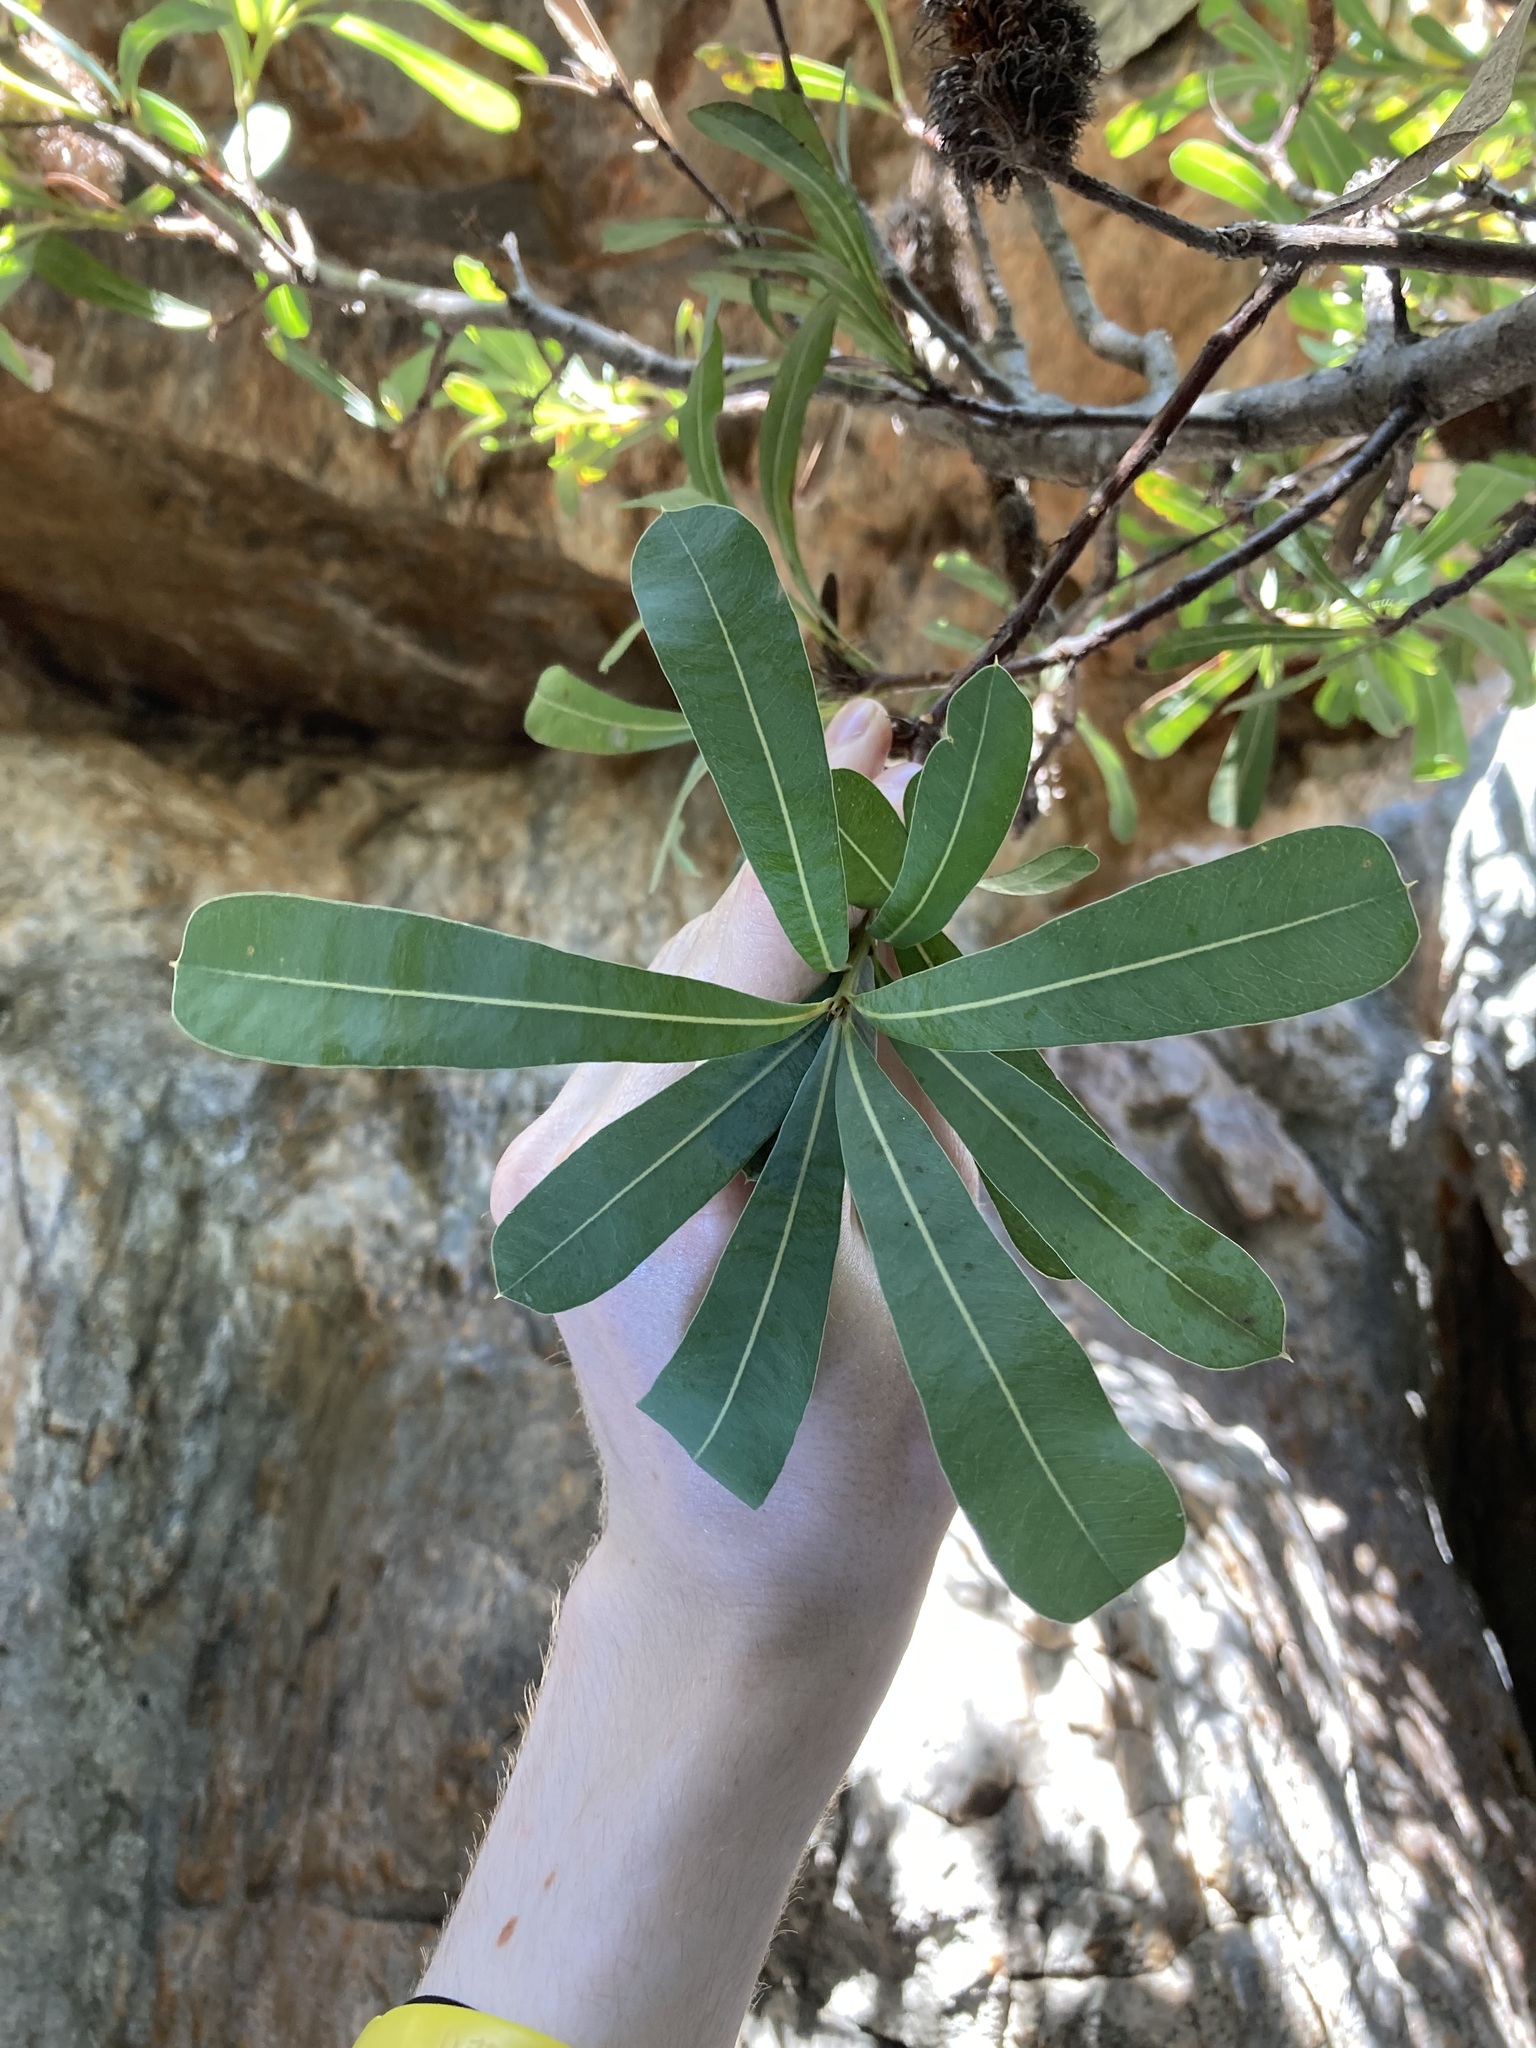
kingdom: Plantae
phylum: Tracheophyta
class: Magnoliopsida
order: Proteales
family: Proteaceae
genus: Banksia
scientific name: Banksia oreophila
